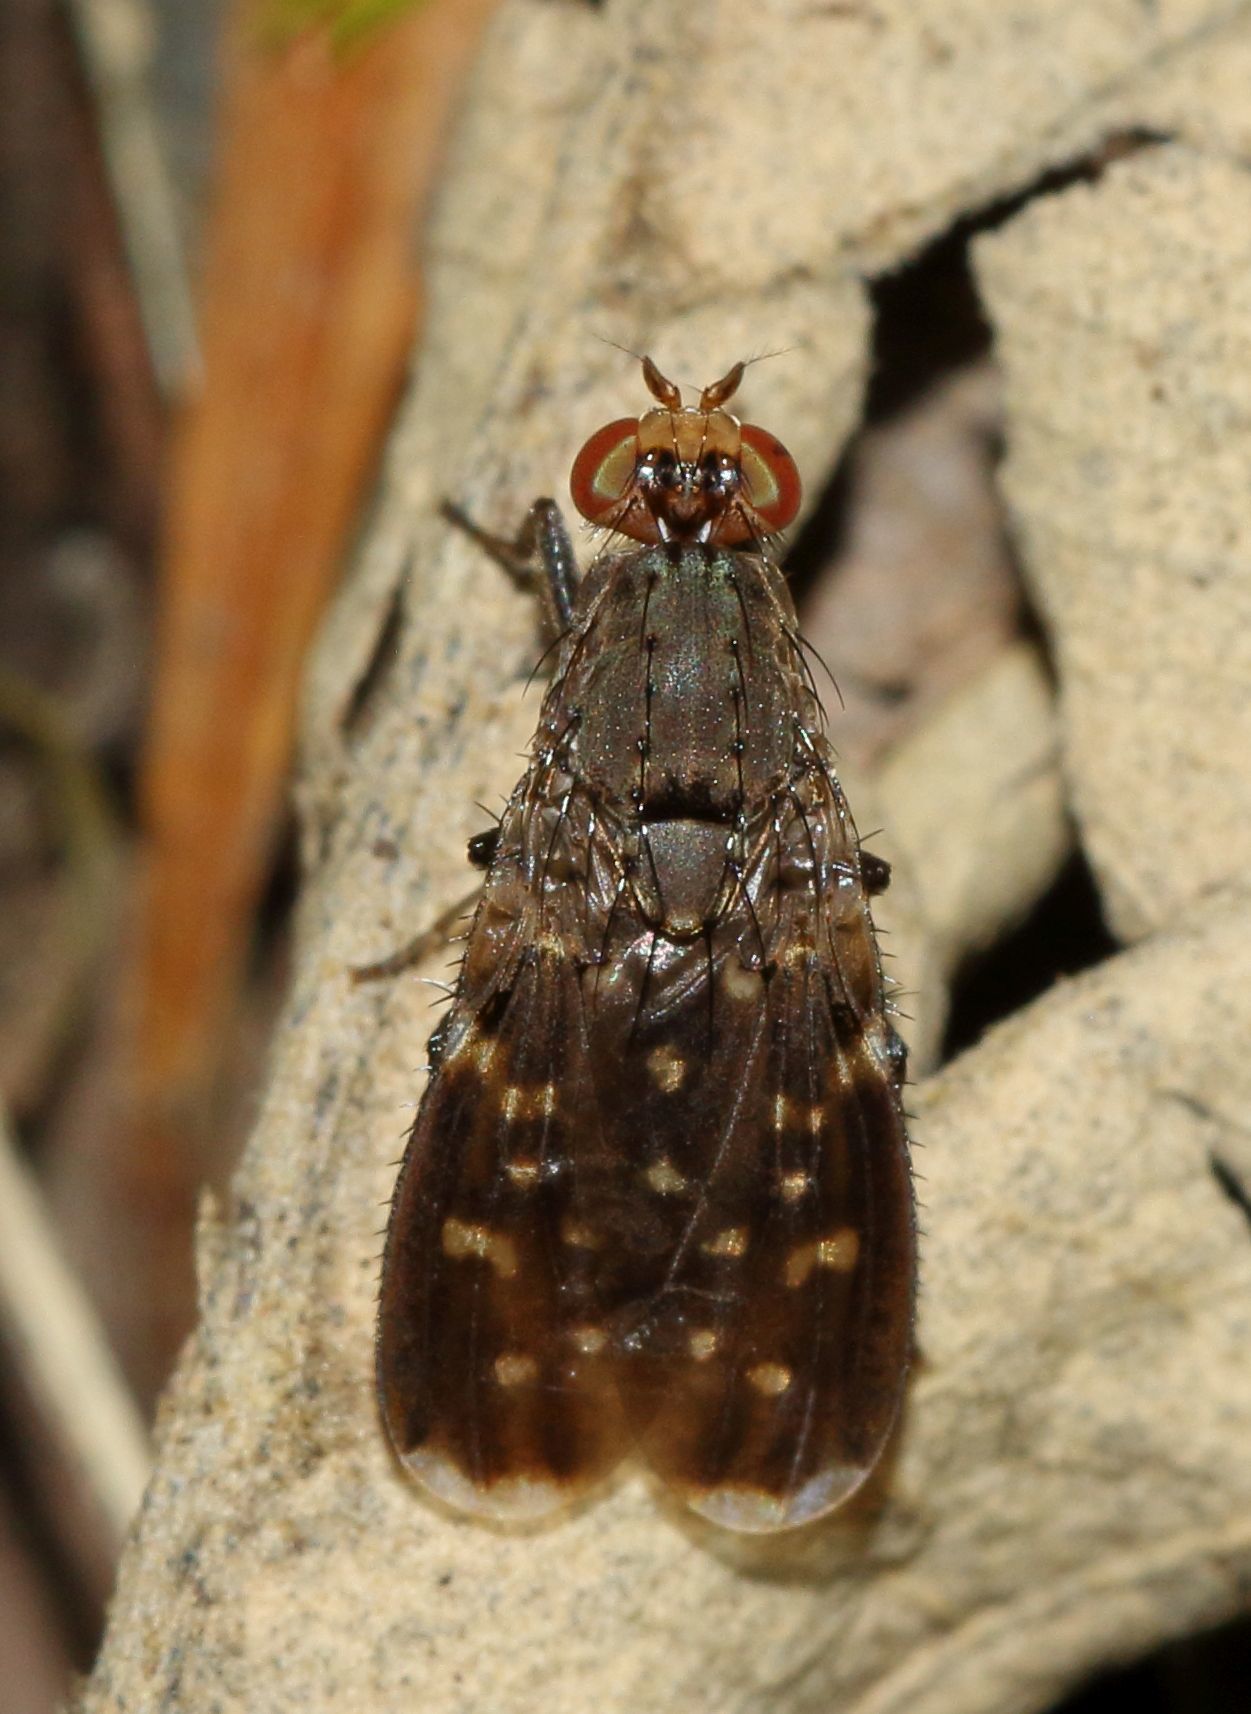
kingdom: Animalia
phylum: Arthropoda
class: Insecta
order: Diptera
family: Heleomyzidae
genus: Suillia
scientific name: Suillia picta
